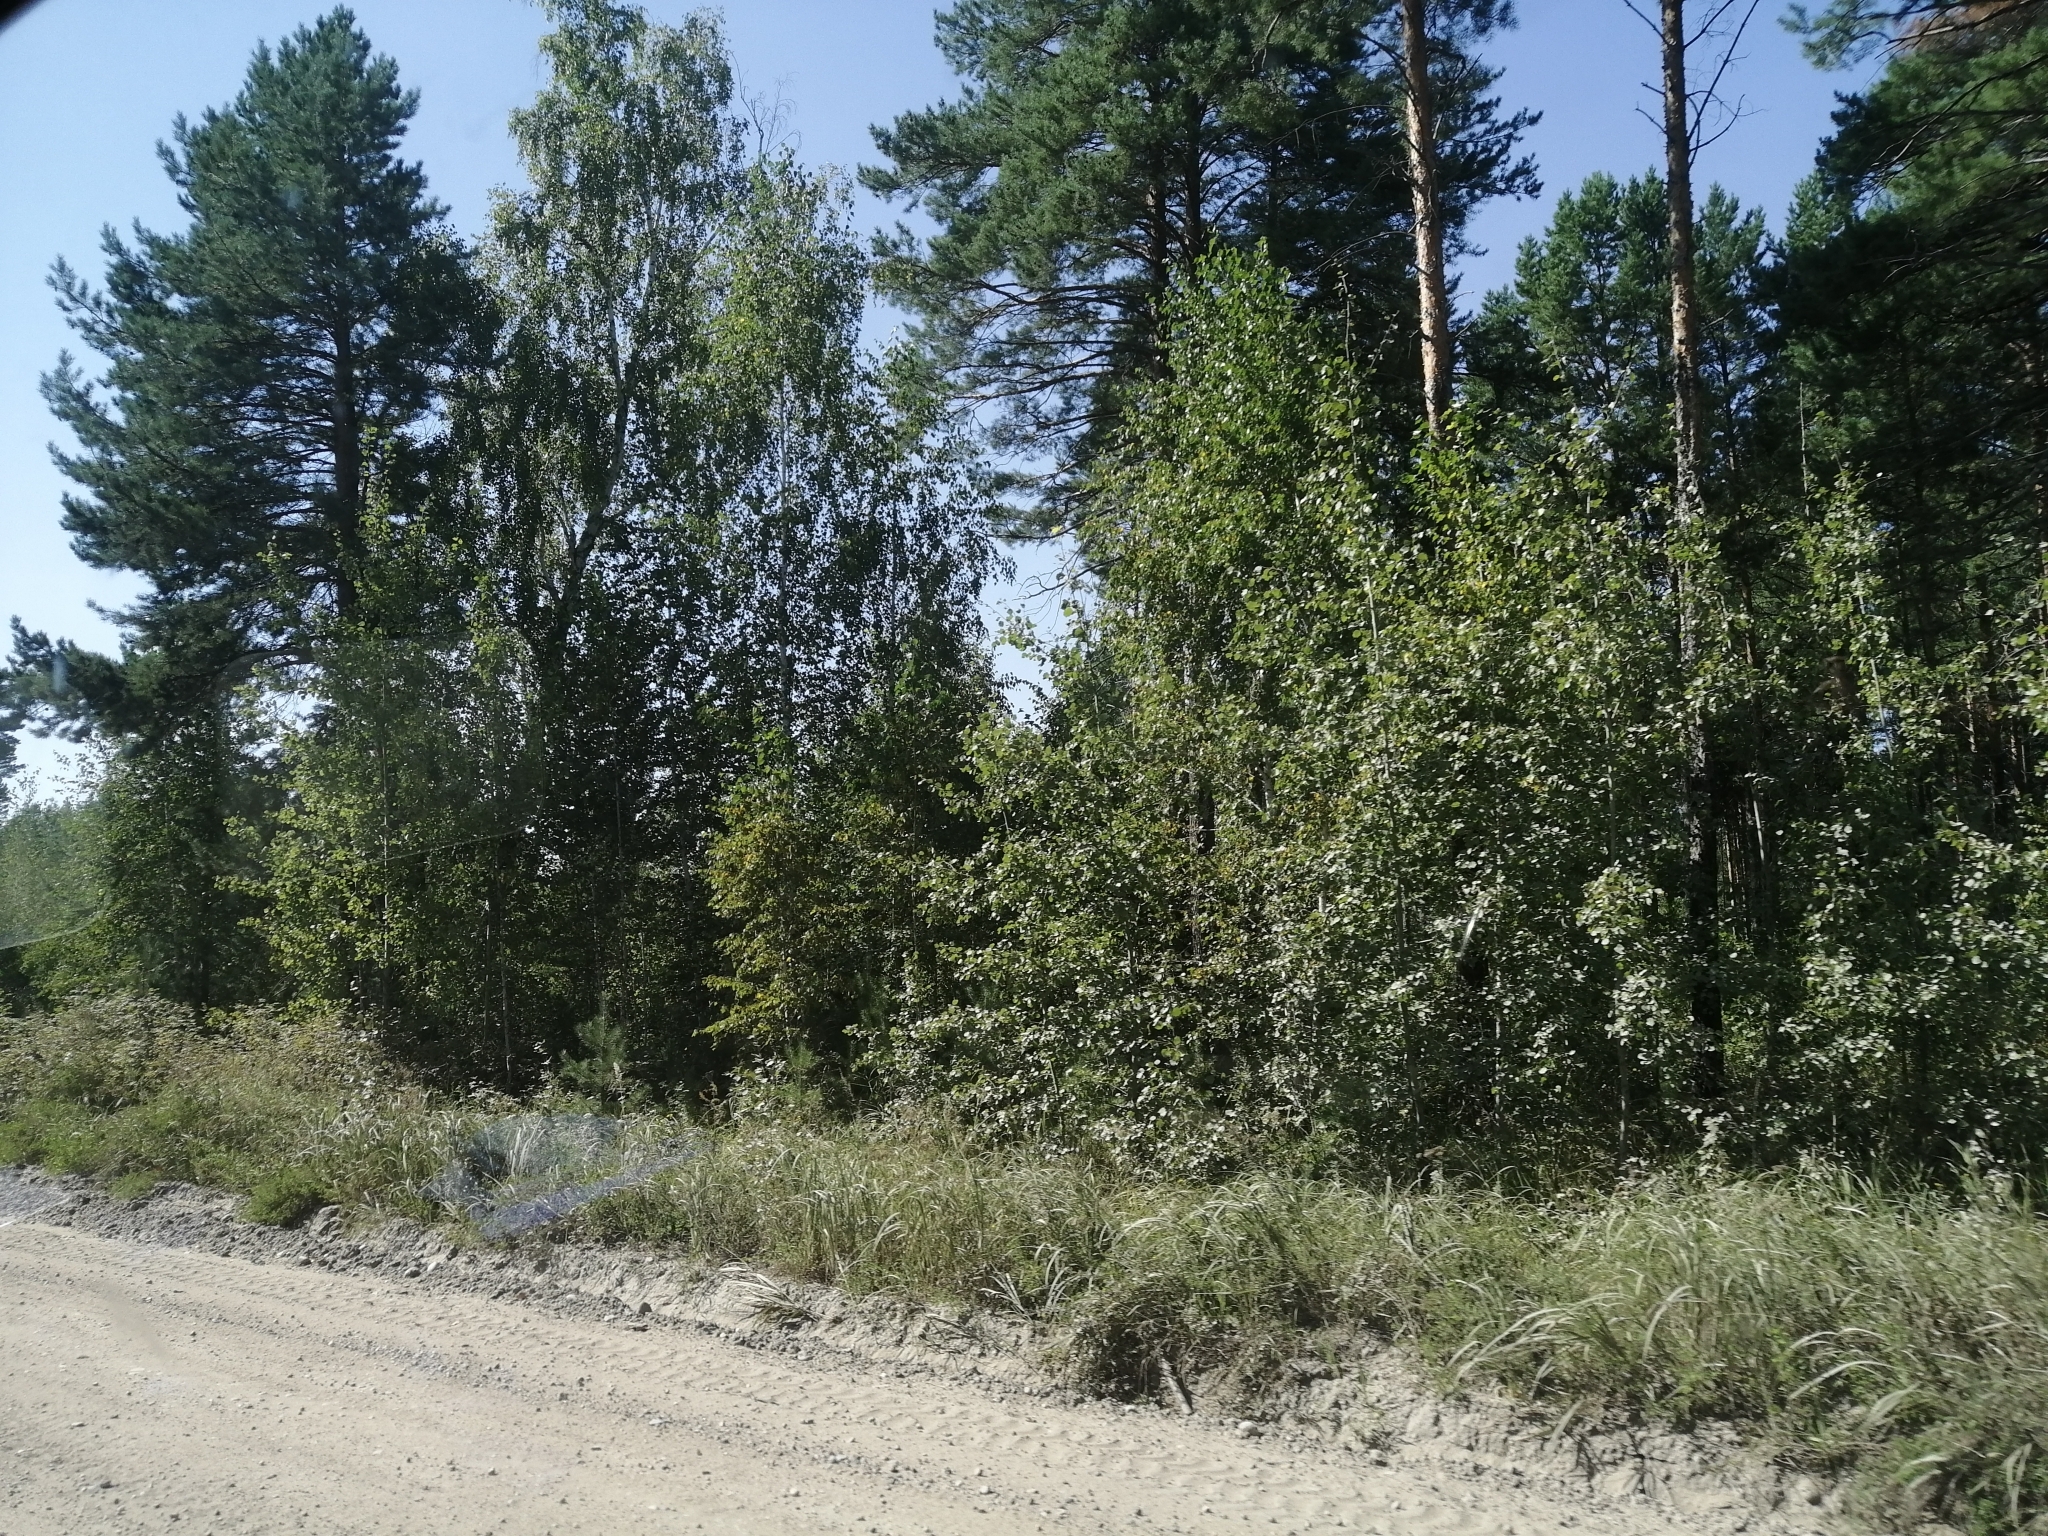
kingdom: Plantae
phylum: Tracheophyta
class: Pinopsida
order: Pinales
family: Pinaceae
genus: Pinus
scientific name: Pinus sylvestris
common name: Scots pine
